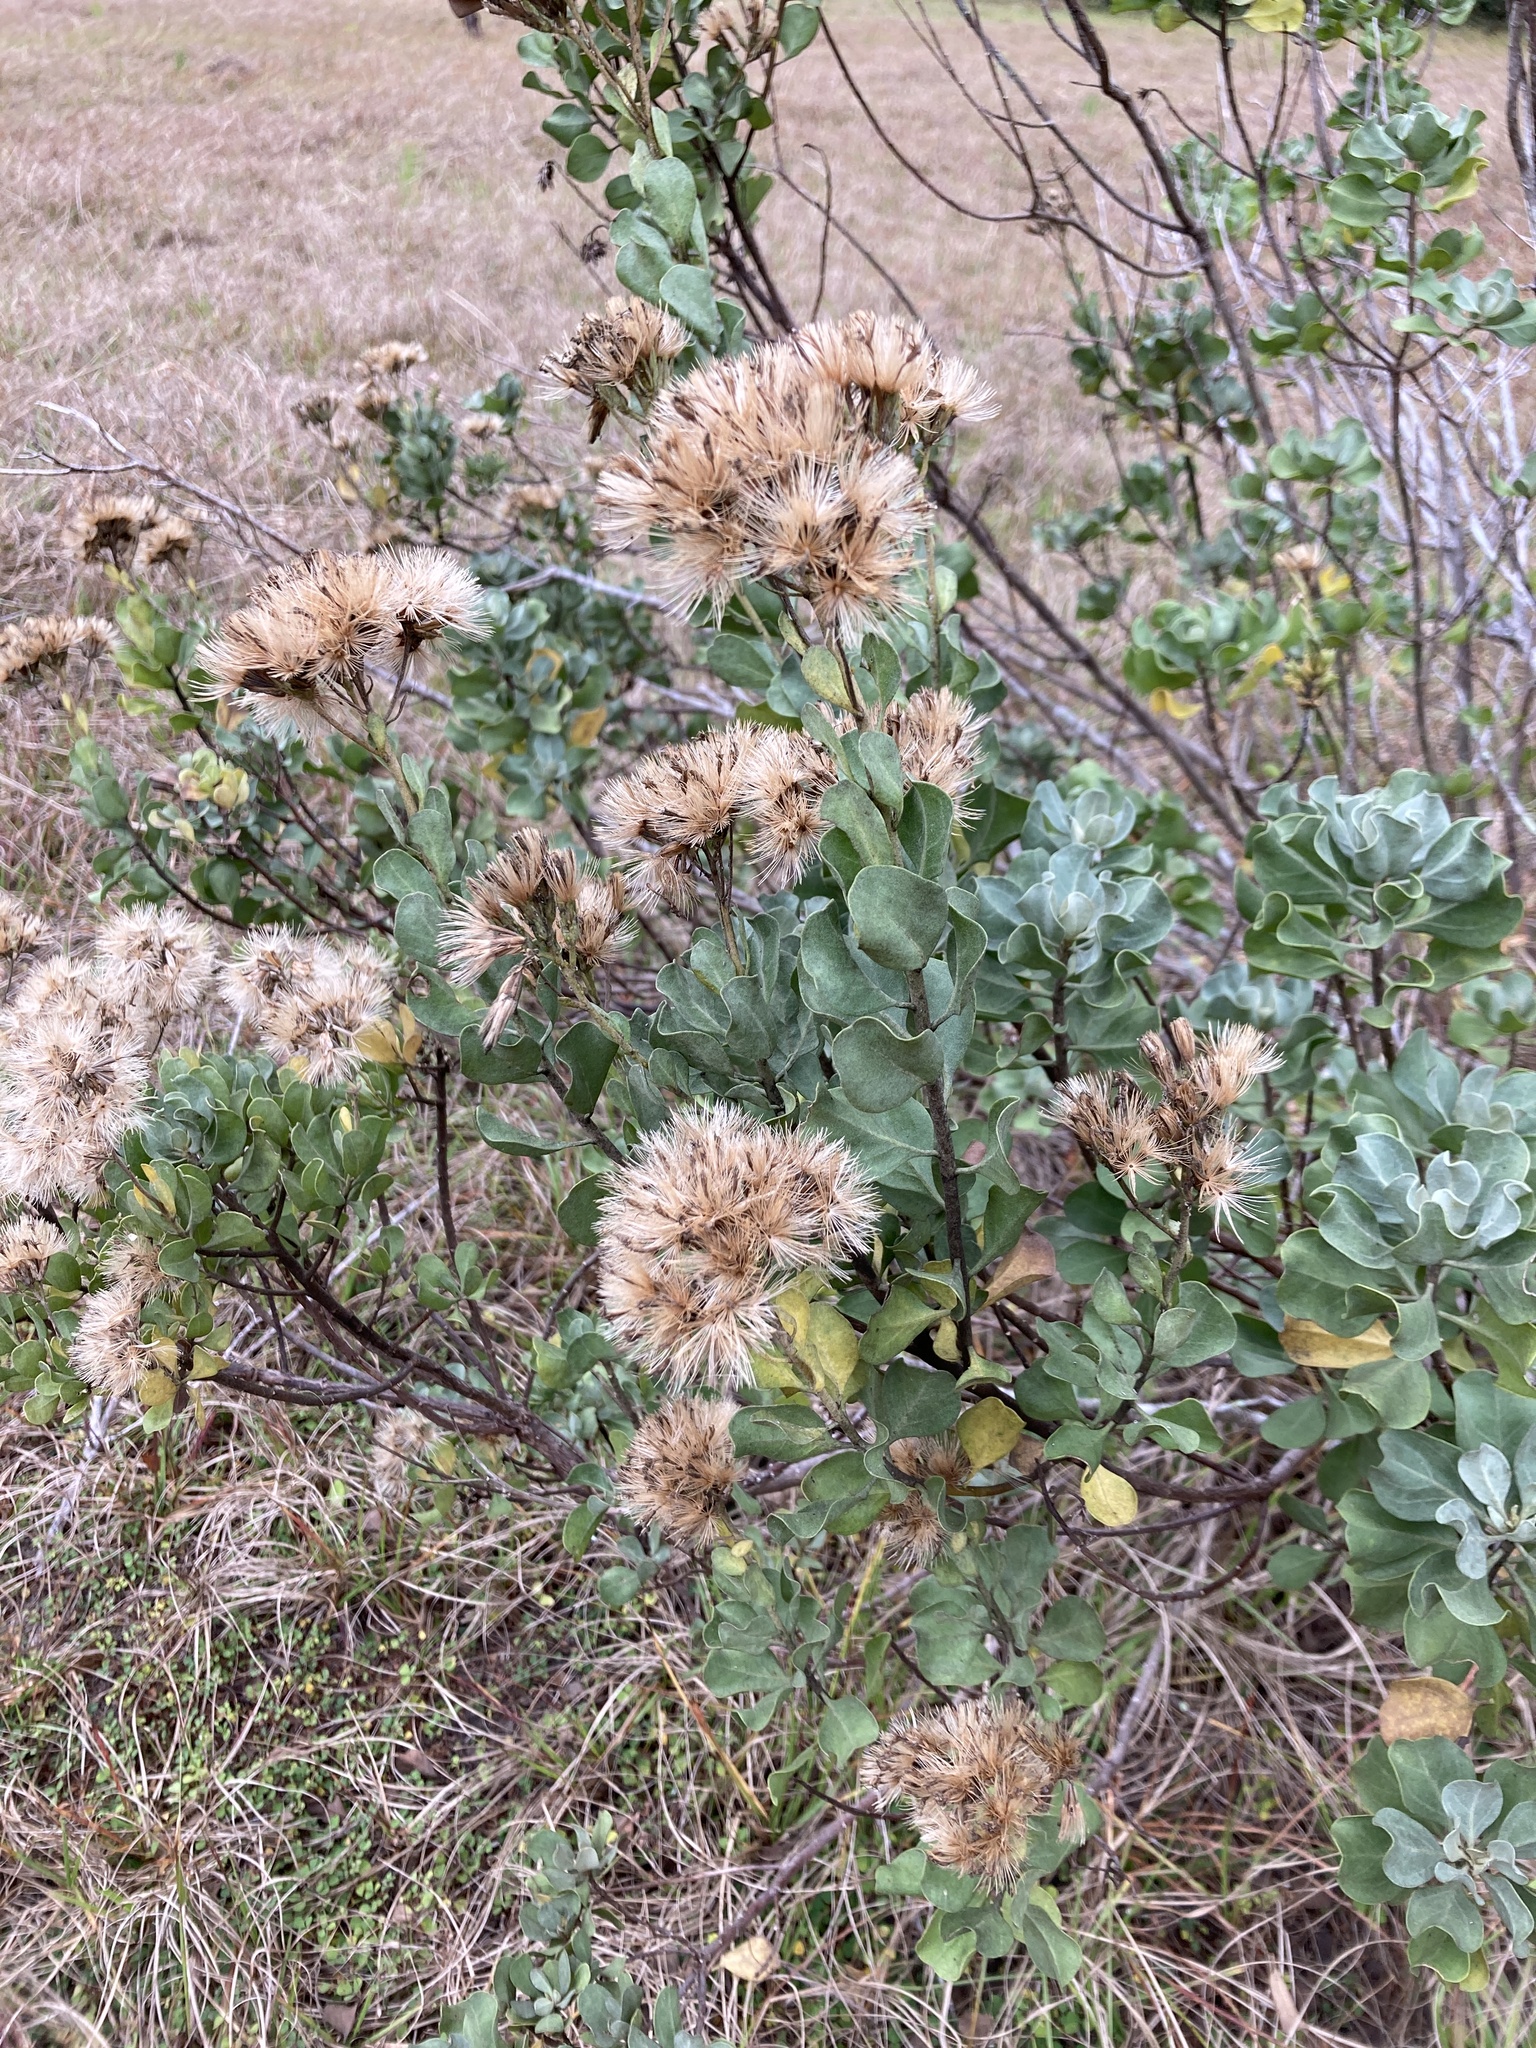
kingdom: Plantae
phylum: Tracheophyta
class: Magnoliopsida
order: Asterales
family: Asteraceae
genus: Garberia
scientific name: Garberia heterophylla
